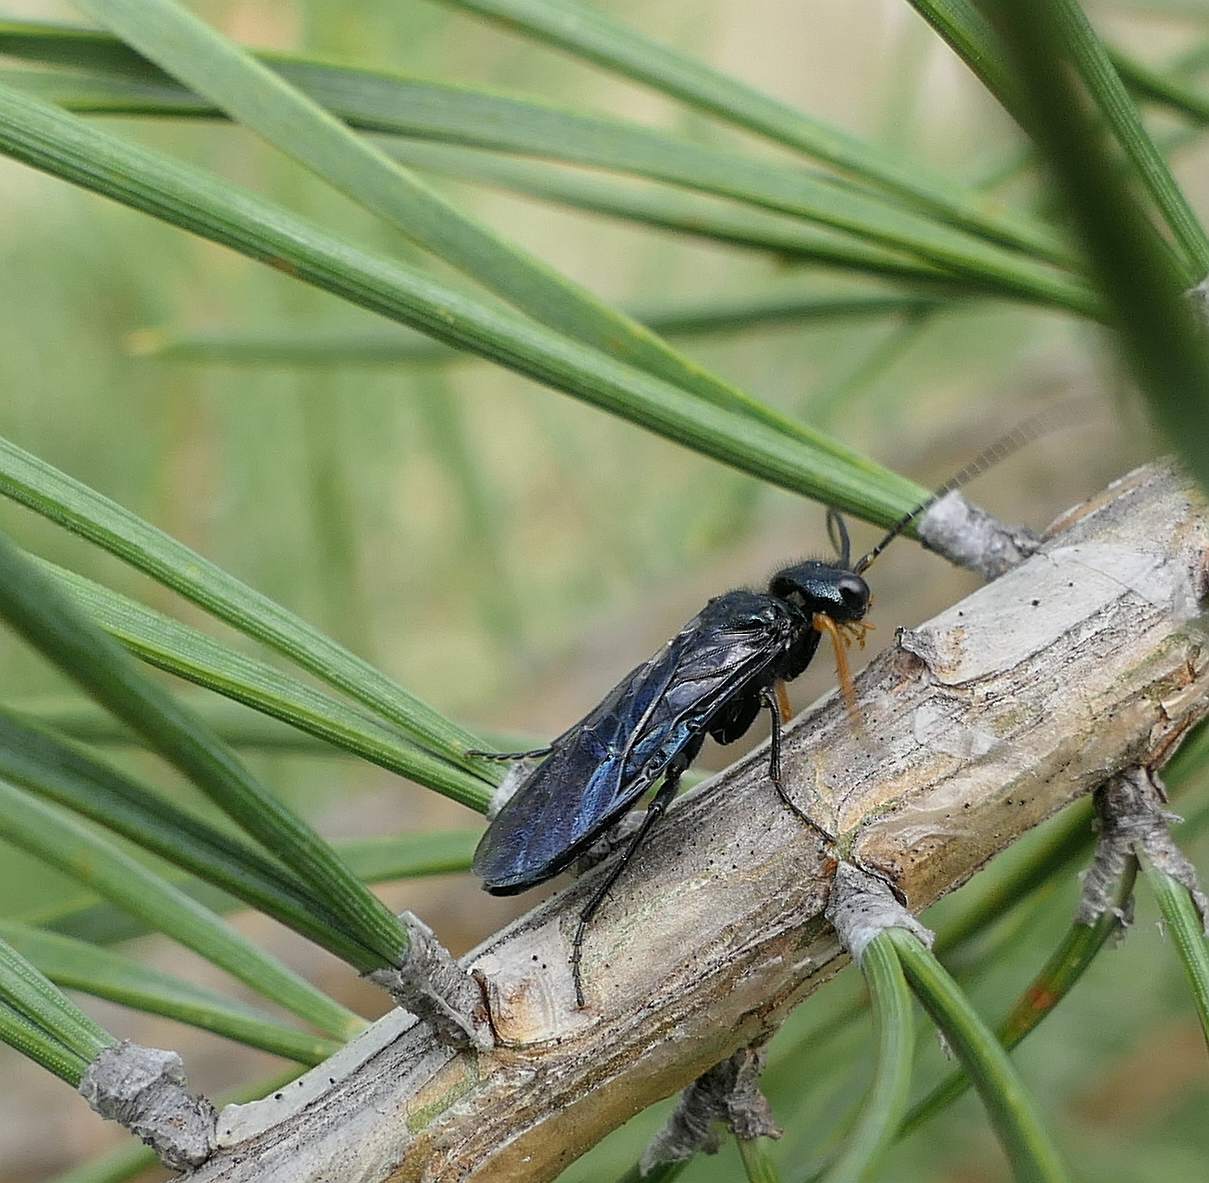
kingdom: Animalia
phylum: Arthropoda
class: Insecta
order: Hymenoptera
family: Pamphiliidae
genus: Acantholyda
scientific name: Acantholyda erythrocephala
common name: Pine false webworm
